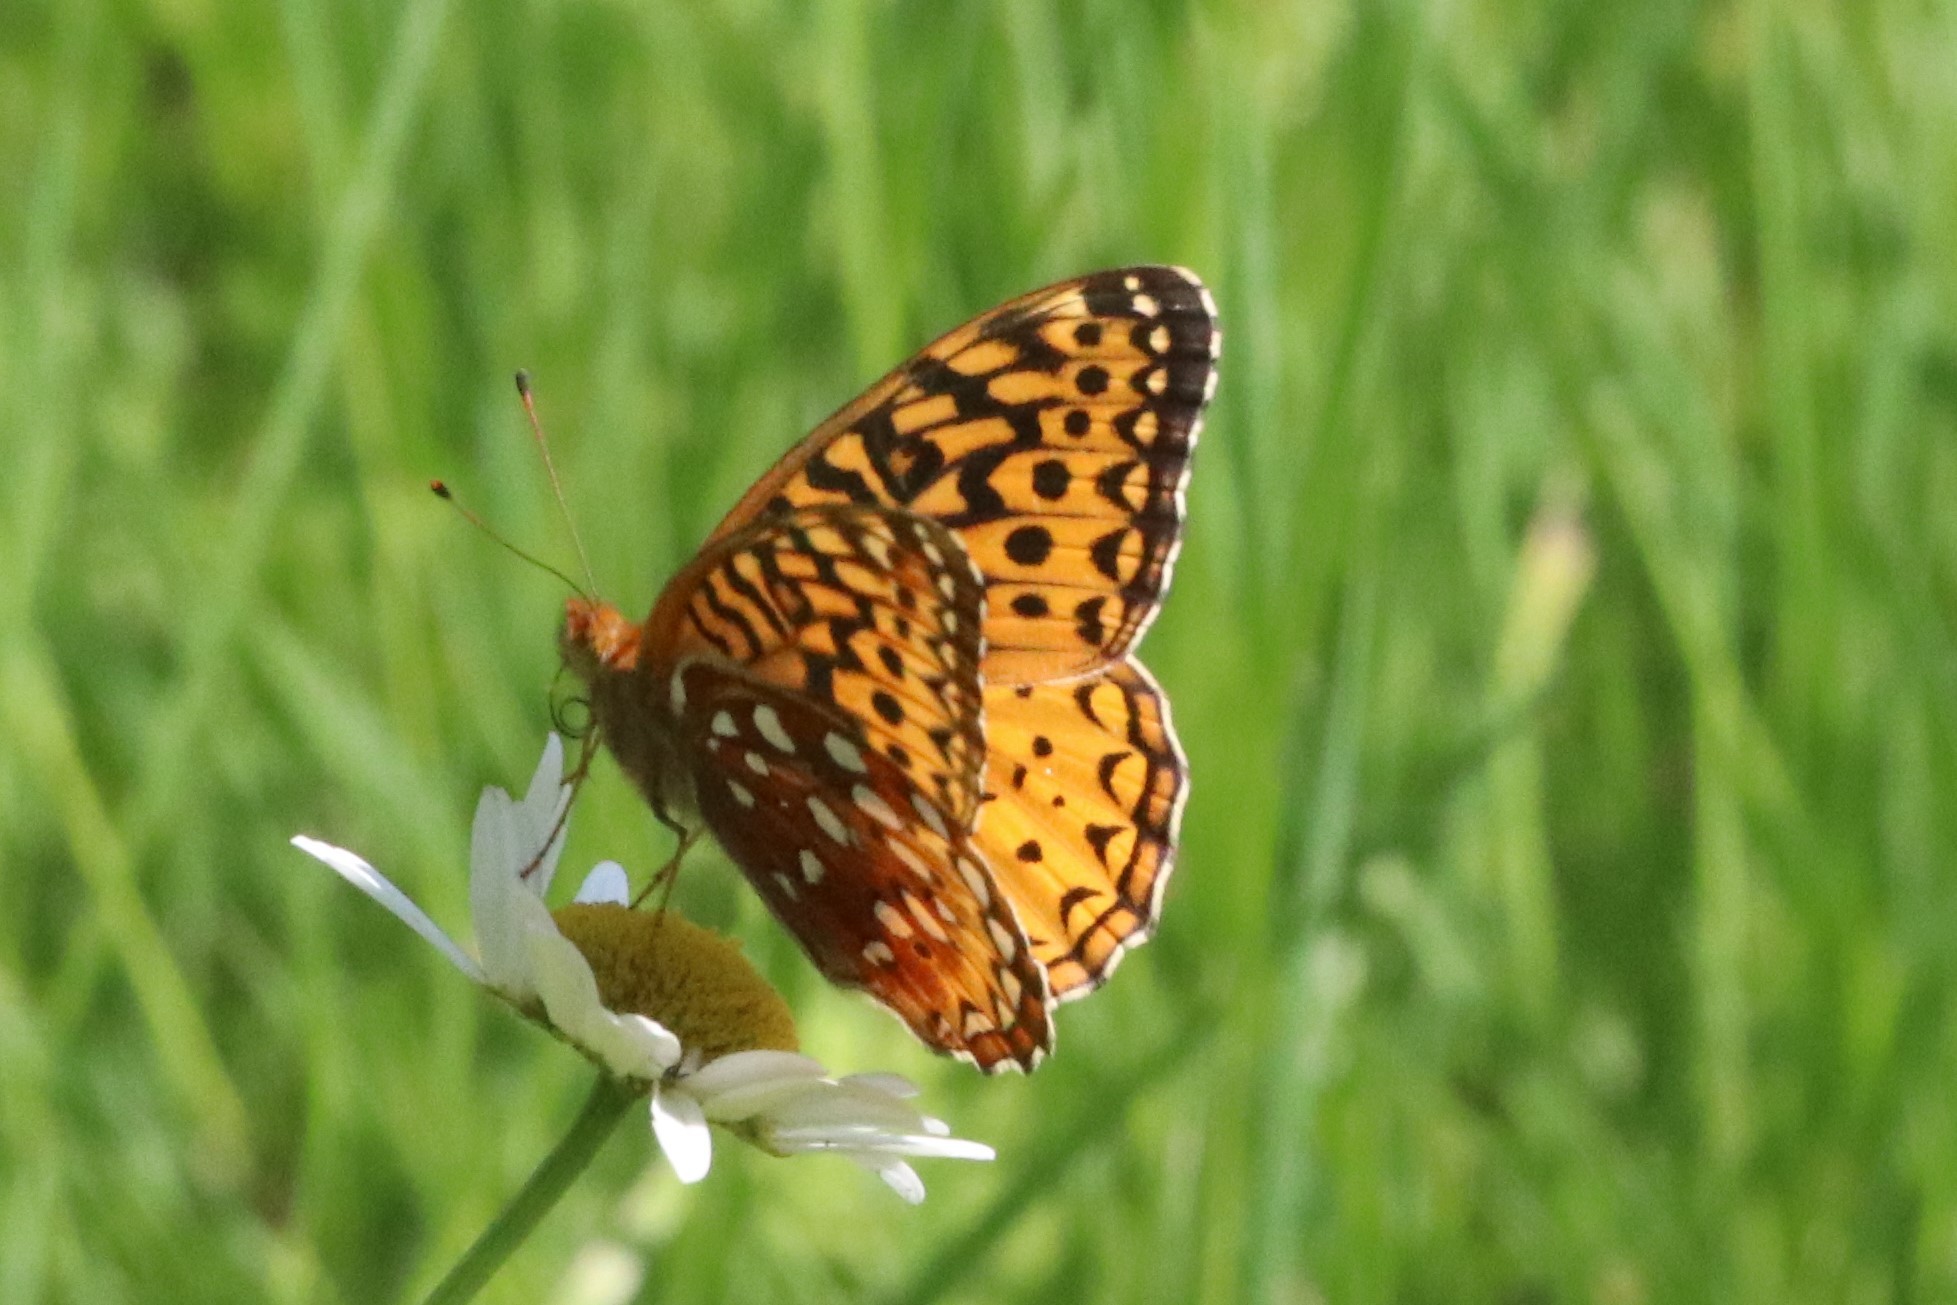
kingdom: Animalia
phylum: Arthropoda
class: Insecta
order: Lepidoptera
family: Nymphalidae
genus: Speyeria
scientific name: Speyeria cybele
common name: Great spangled fritillary
